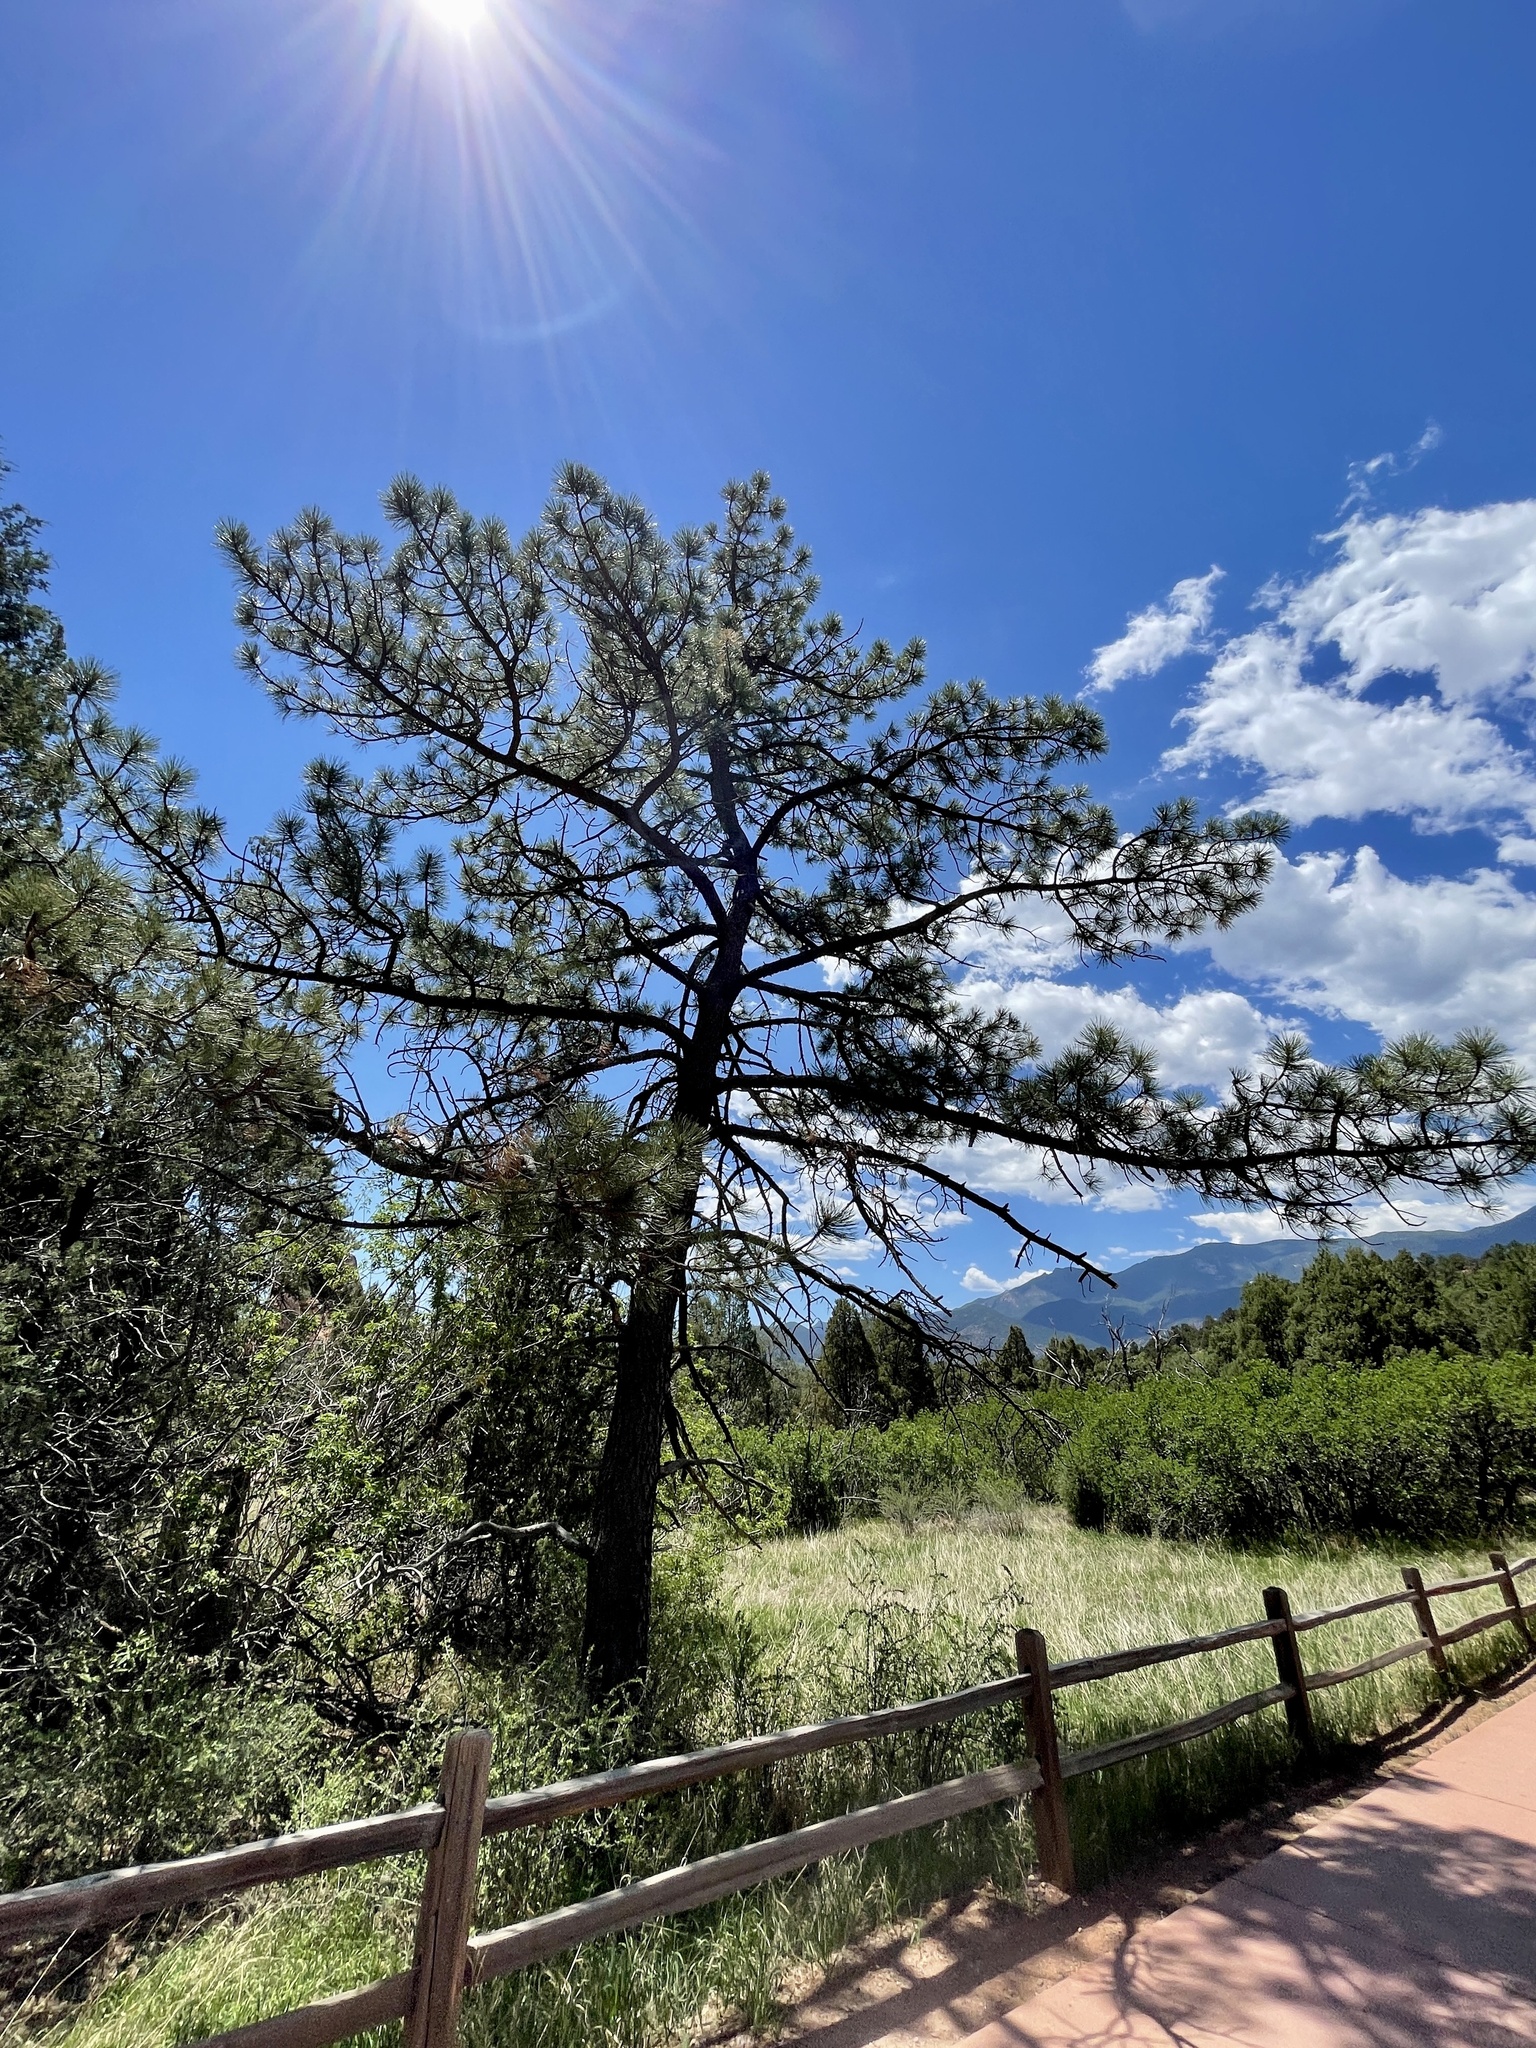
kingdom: Plantae
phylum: Tracheophyta
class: Pinopsida
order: Pinales
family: Pinaceae
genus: Pinus
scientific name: Pinus ponderosa
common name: Western yellow-pine
